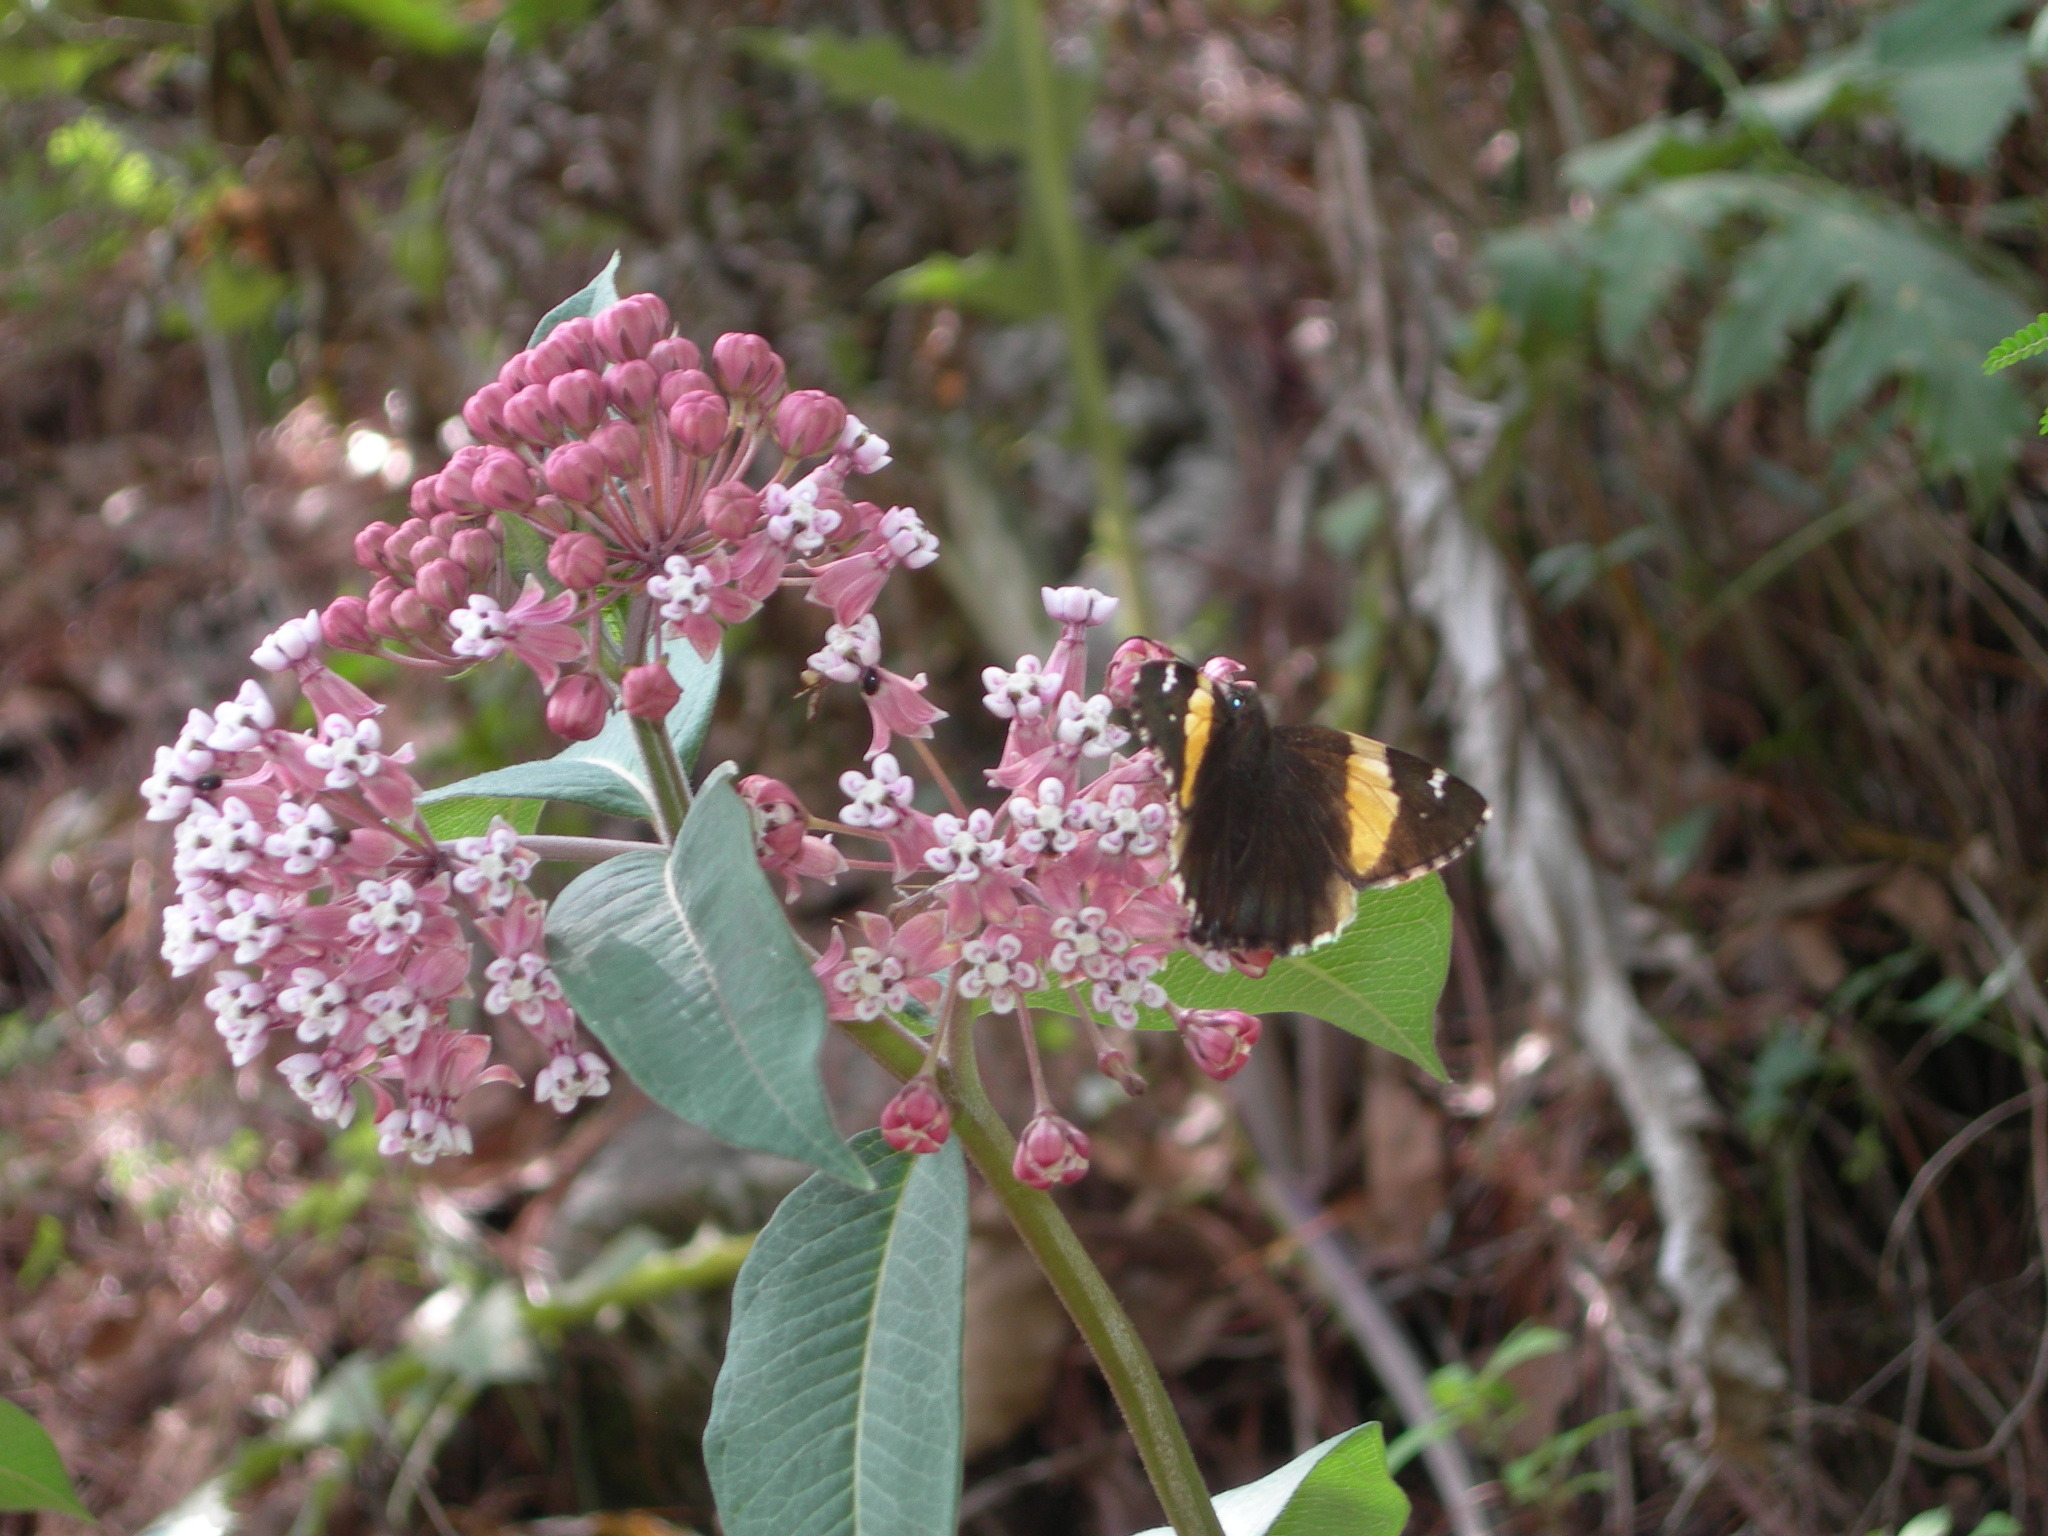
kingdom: Plantae
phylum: Tracheophyta
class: Magnoliopsida
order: Gentianales
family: Apocynaceae
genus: Asclepias
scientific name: Asclepias pellucida
